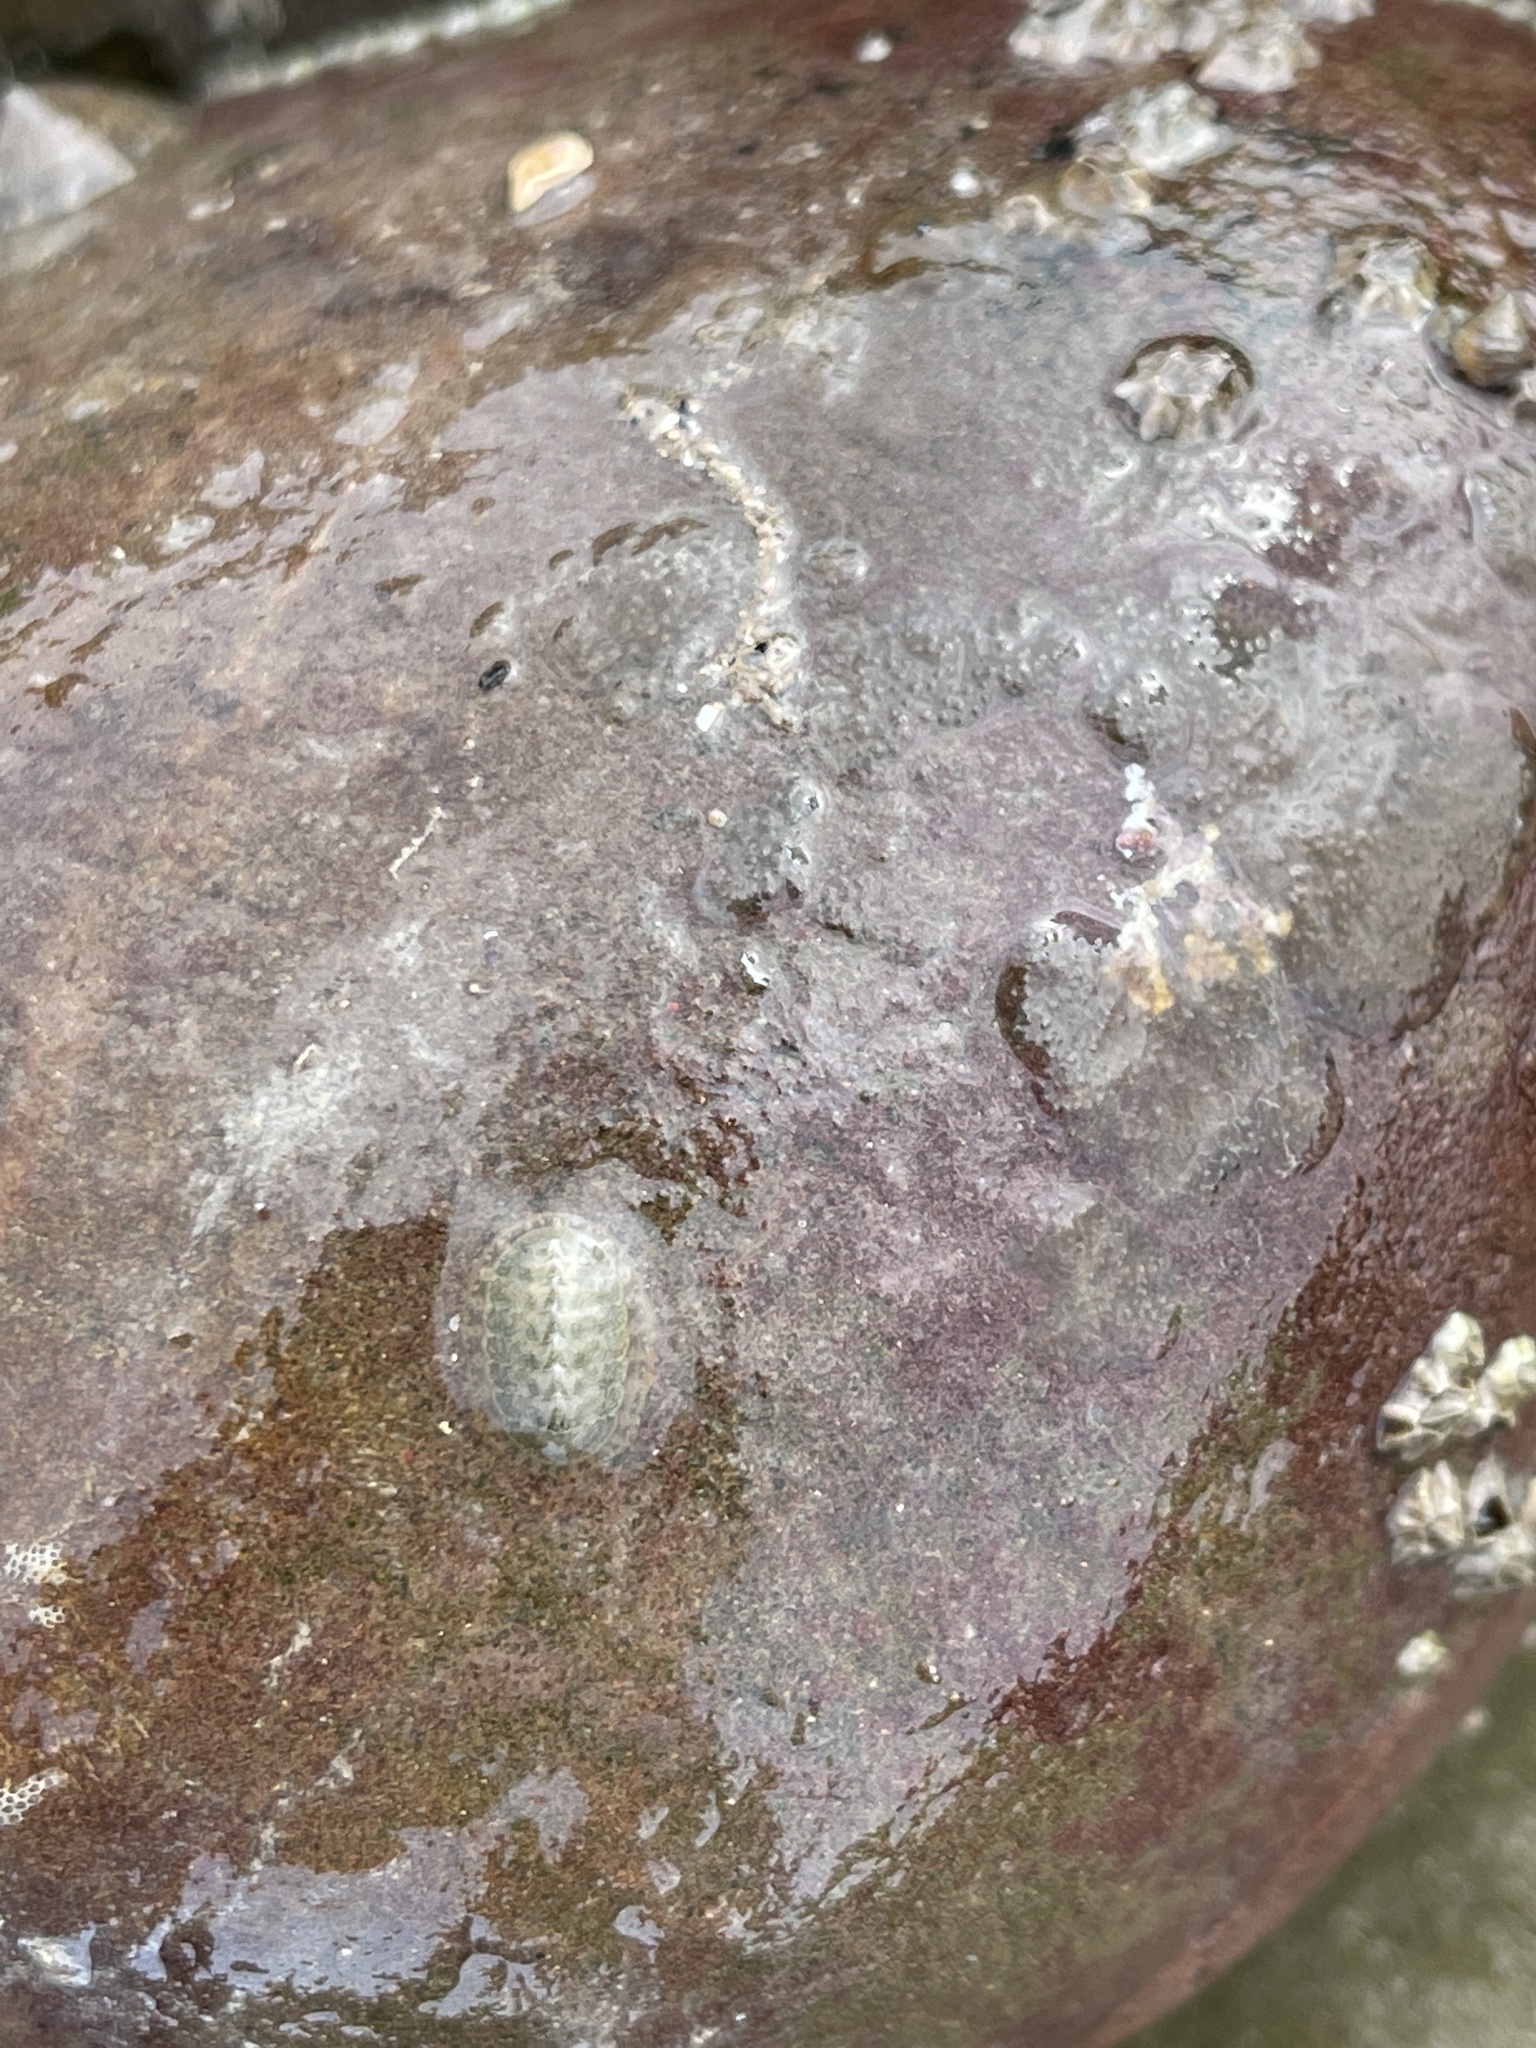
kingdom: Animalia
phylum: Mollusca
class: Polyplacophora
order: Chitonida
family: Tonicellidae
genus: Lepidochitona
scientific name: Lepidochitona cinerea
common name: Cinereous chiton
